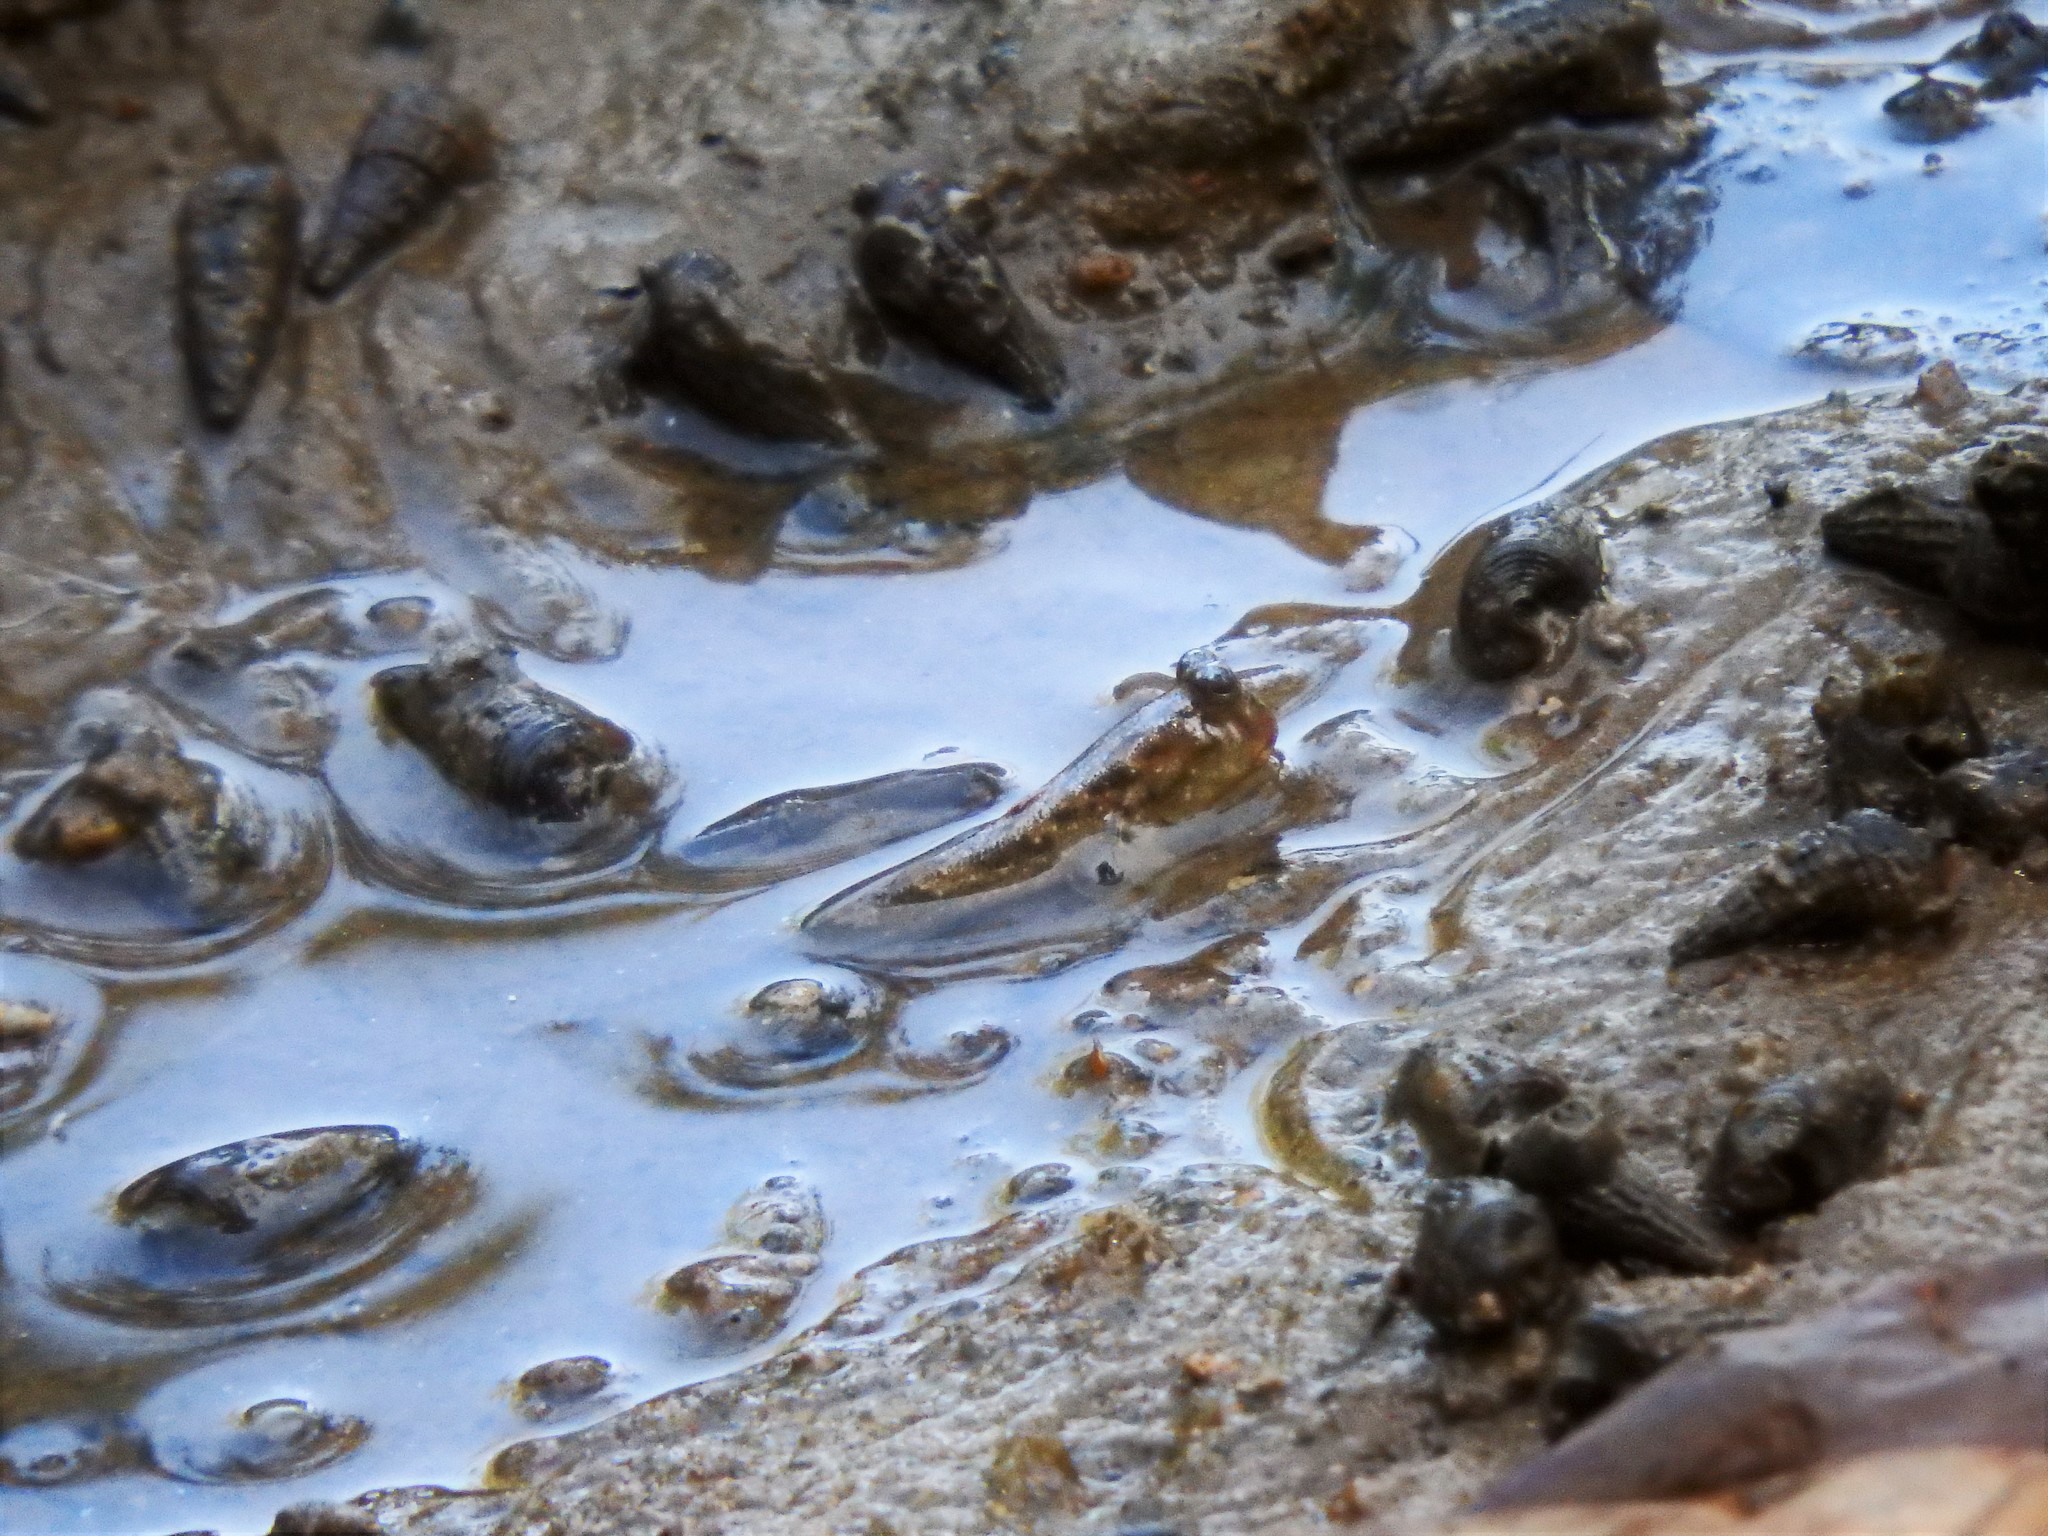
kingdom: Animalia
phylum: Chordata
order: Perciformes
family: Gobiidae
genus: Periophthalmus
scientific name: Periophthalmus walailakae
